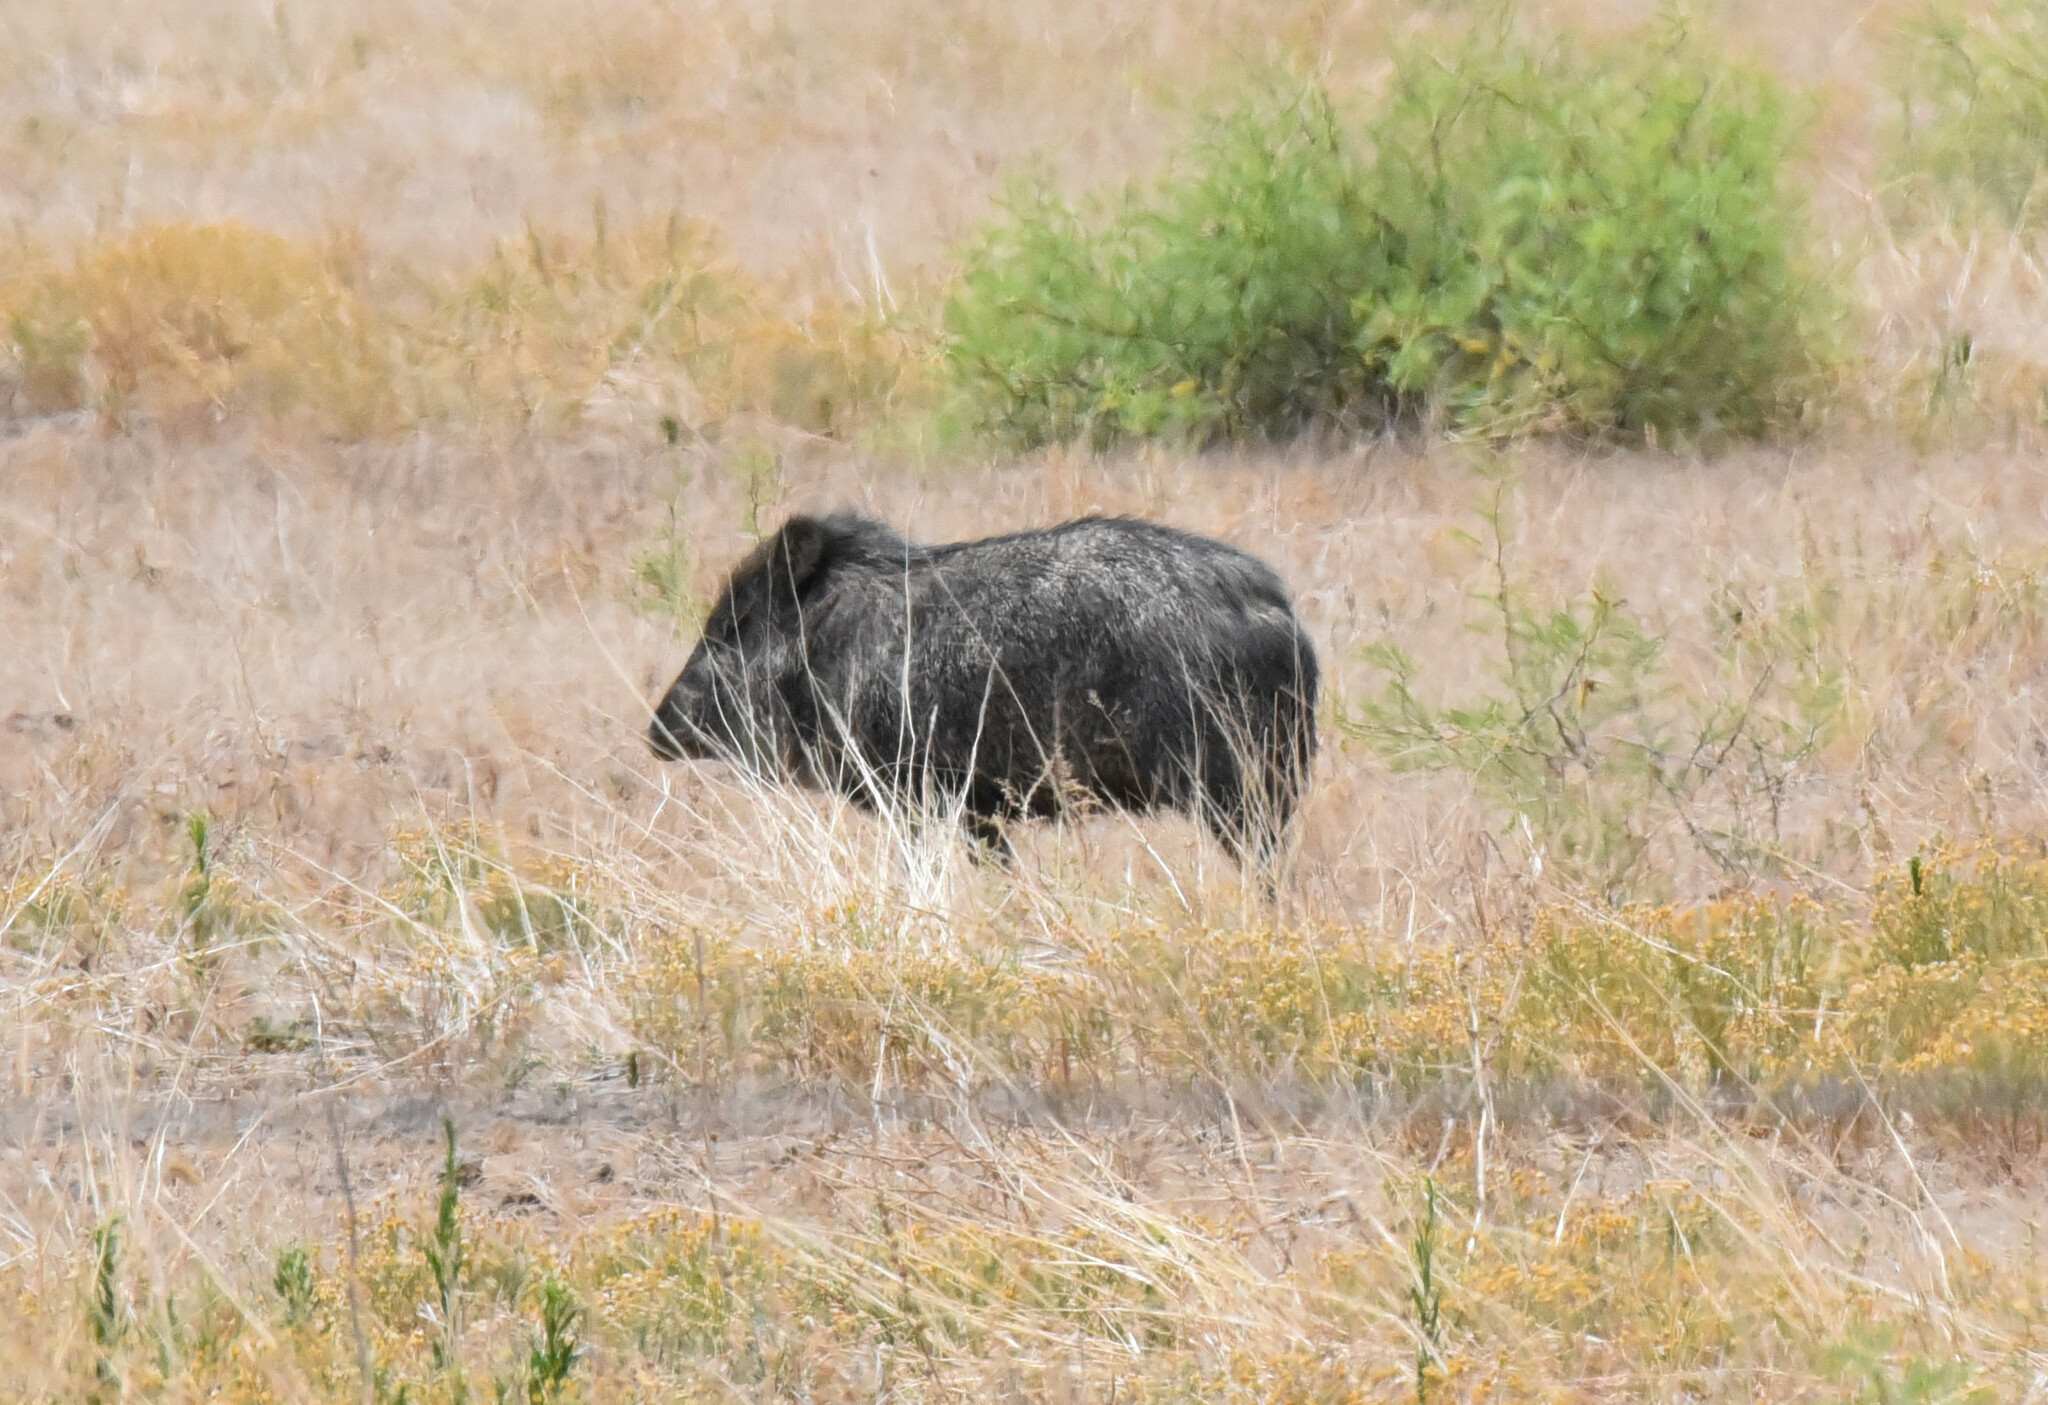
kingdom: Animalia
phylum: Chordata
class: Mammalia
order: Artiodactyla
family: Tayassuidae
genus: Pecari
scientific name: Pecari tajacu
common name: Collared peccary
